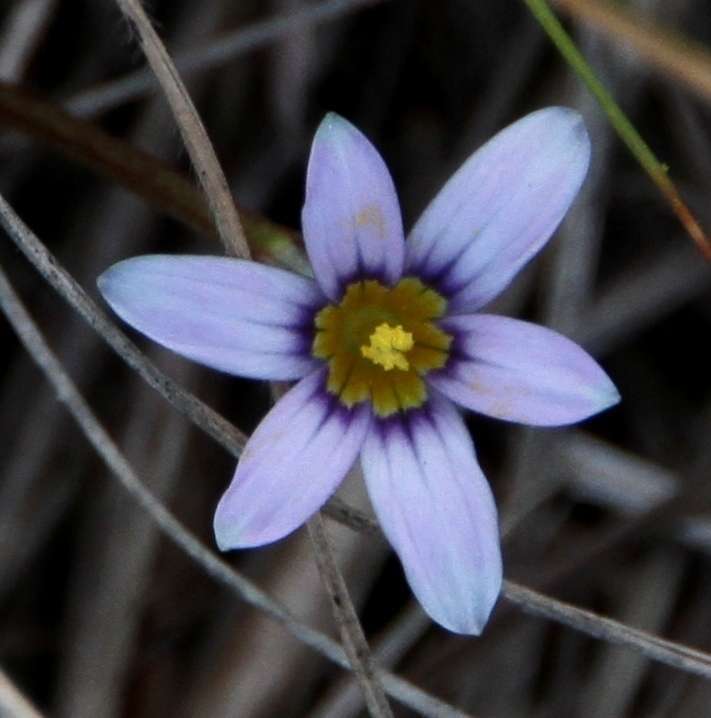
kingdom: Plantae
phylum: Tracheophyta
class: Liliopsida
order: Asparagales
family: Iridaceae
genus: Romulea
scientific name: Romulea minutiflora
